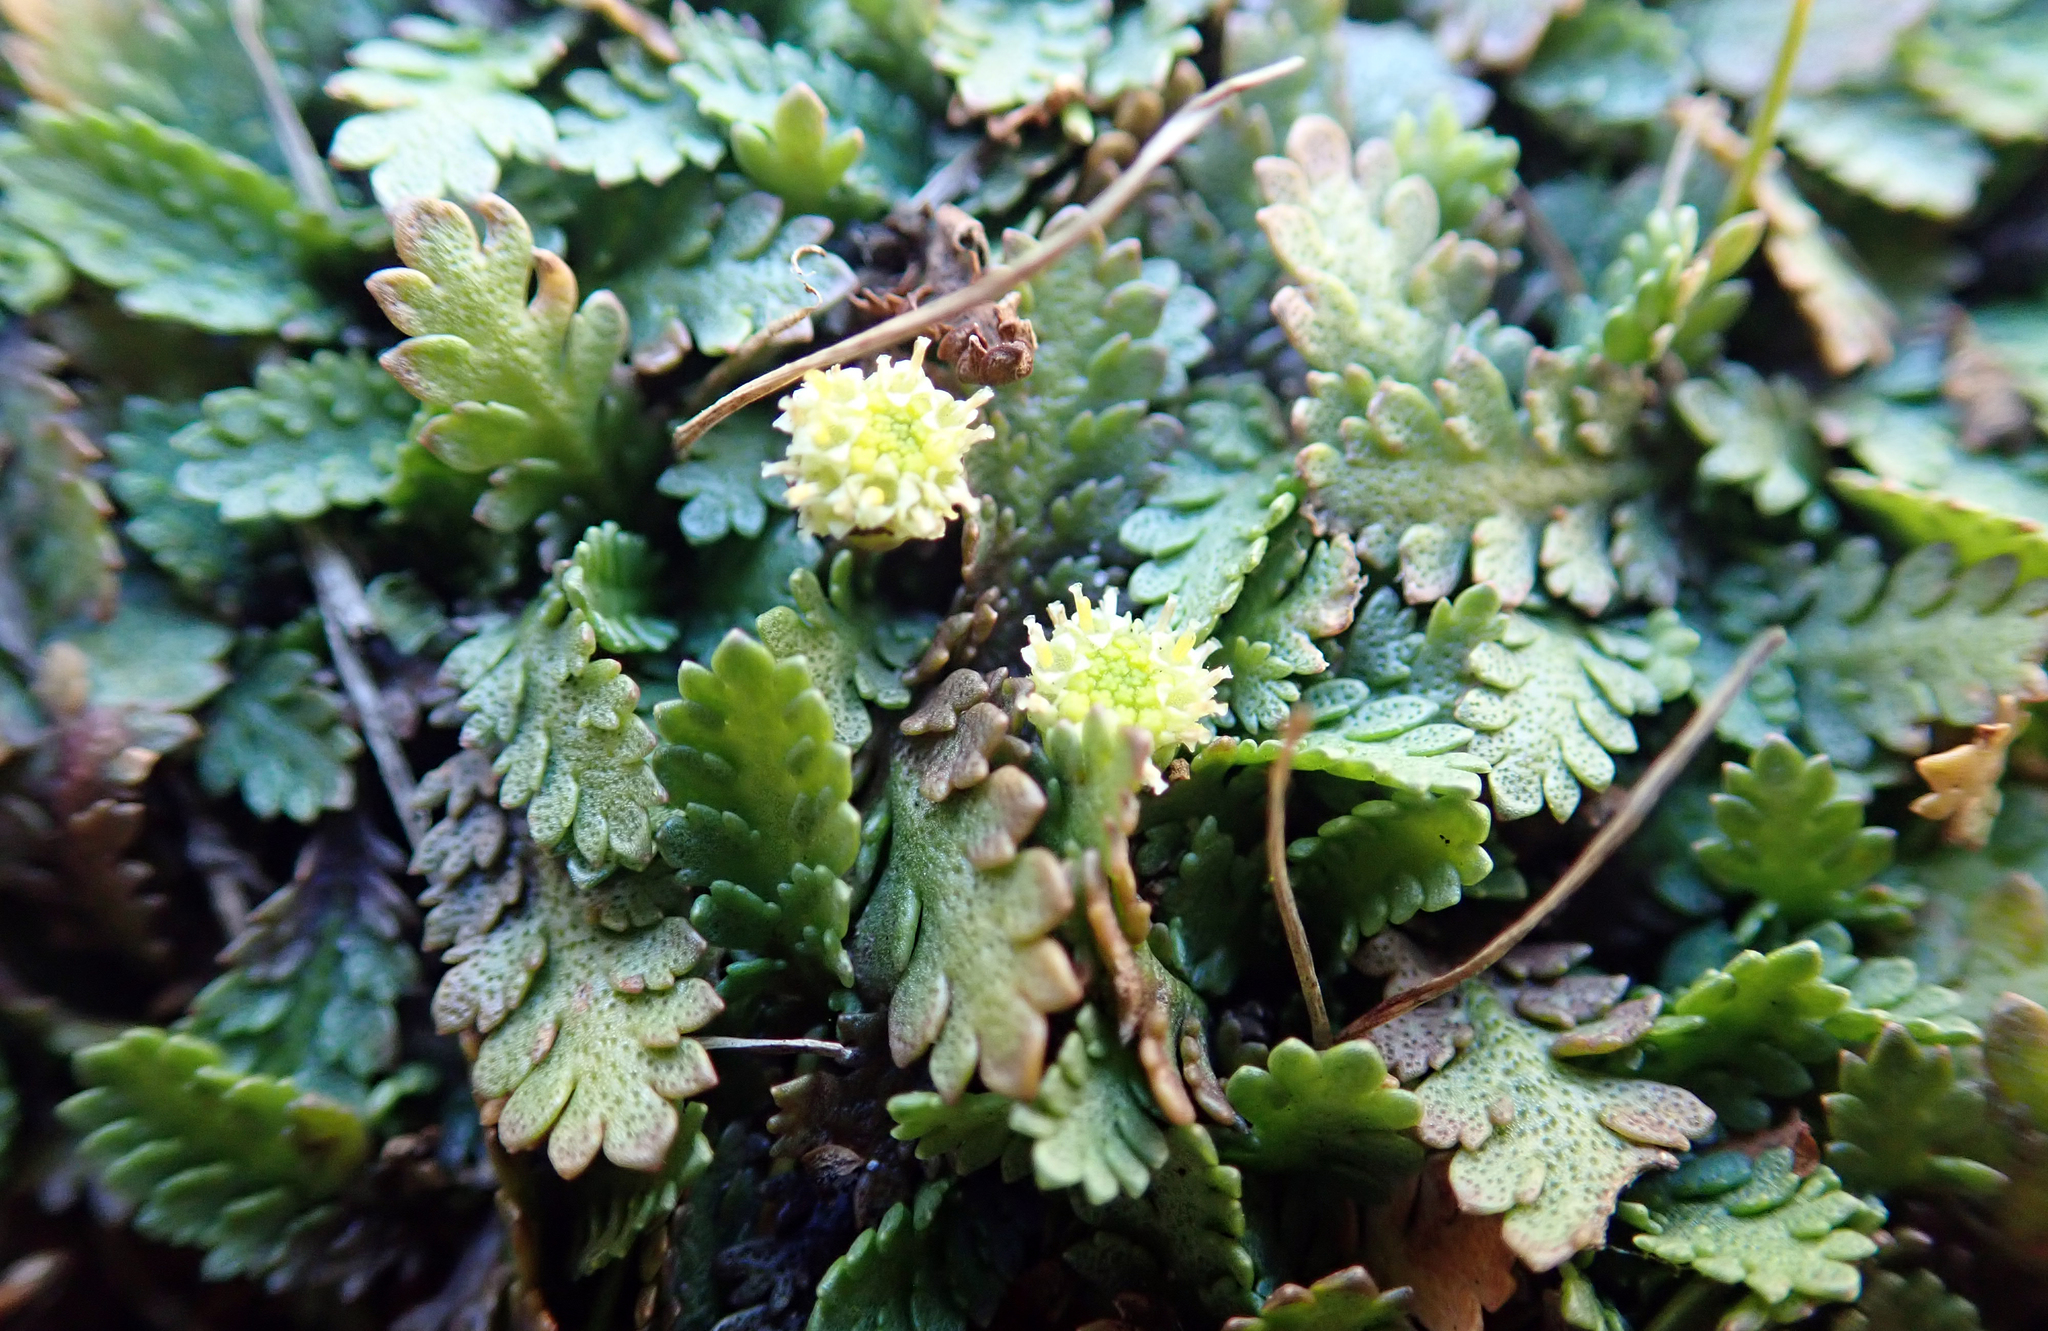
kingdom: Plantae
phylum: Tracheophyta
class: Magnoliopsida
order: Asterales
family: Asteraceae
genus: Leptinella
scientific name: Leptinella squalida
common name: New zealand brass-buttons
